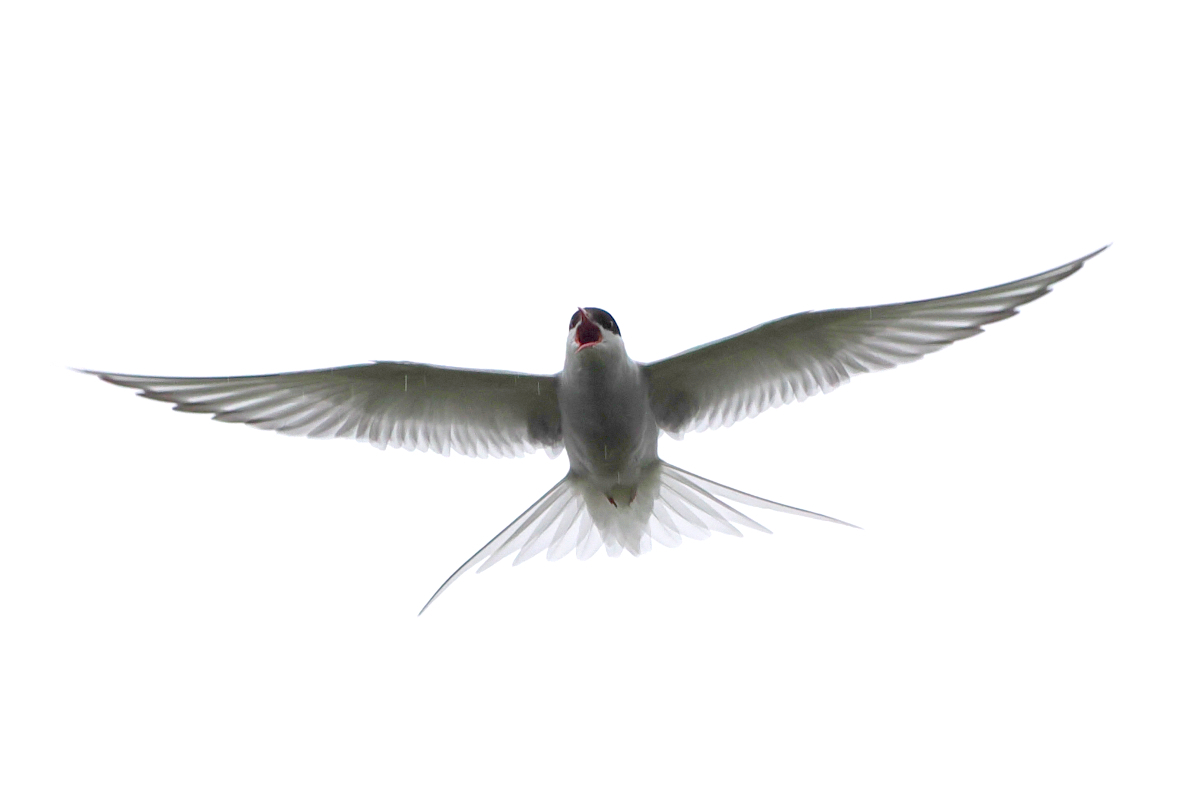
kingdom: Animalia
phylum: Chordata
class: Aves
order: Charadriiformes
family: Laridae
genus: Sterna
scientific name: Sterna paradisaea
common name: Arctic tern
